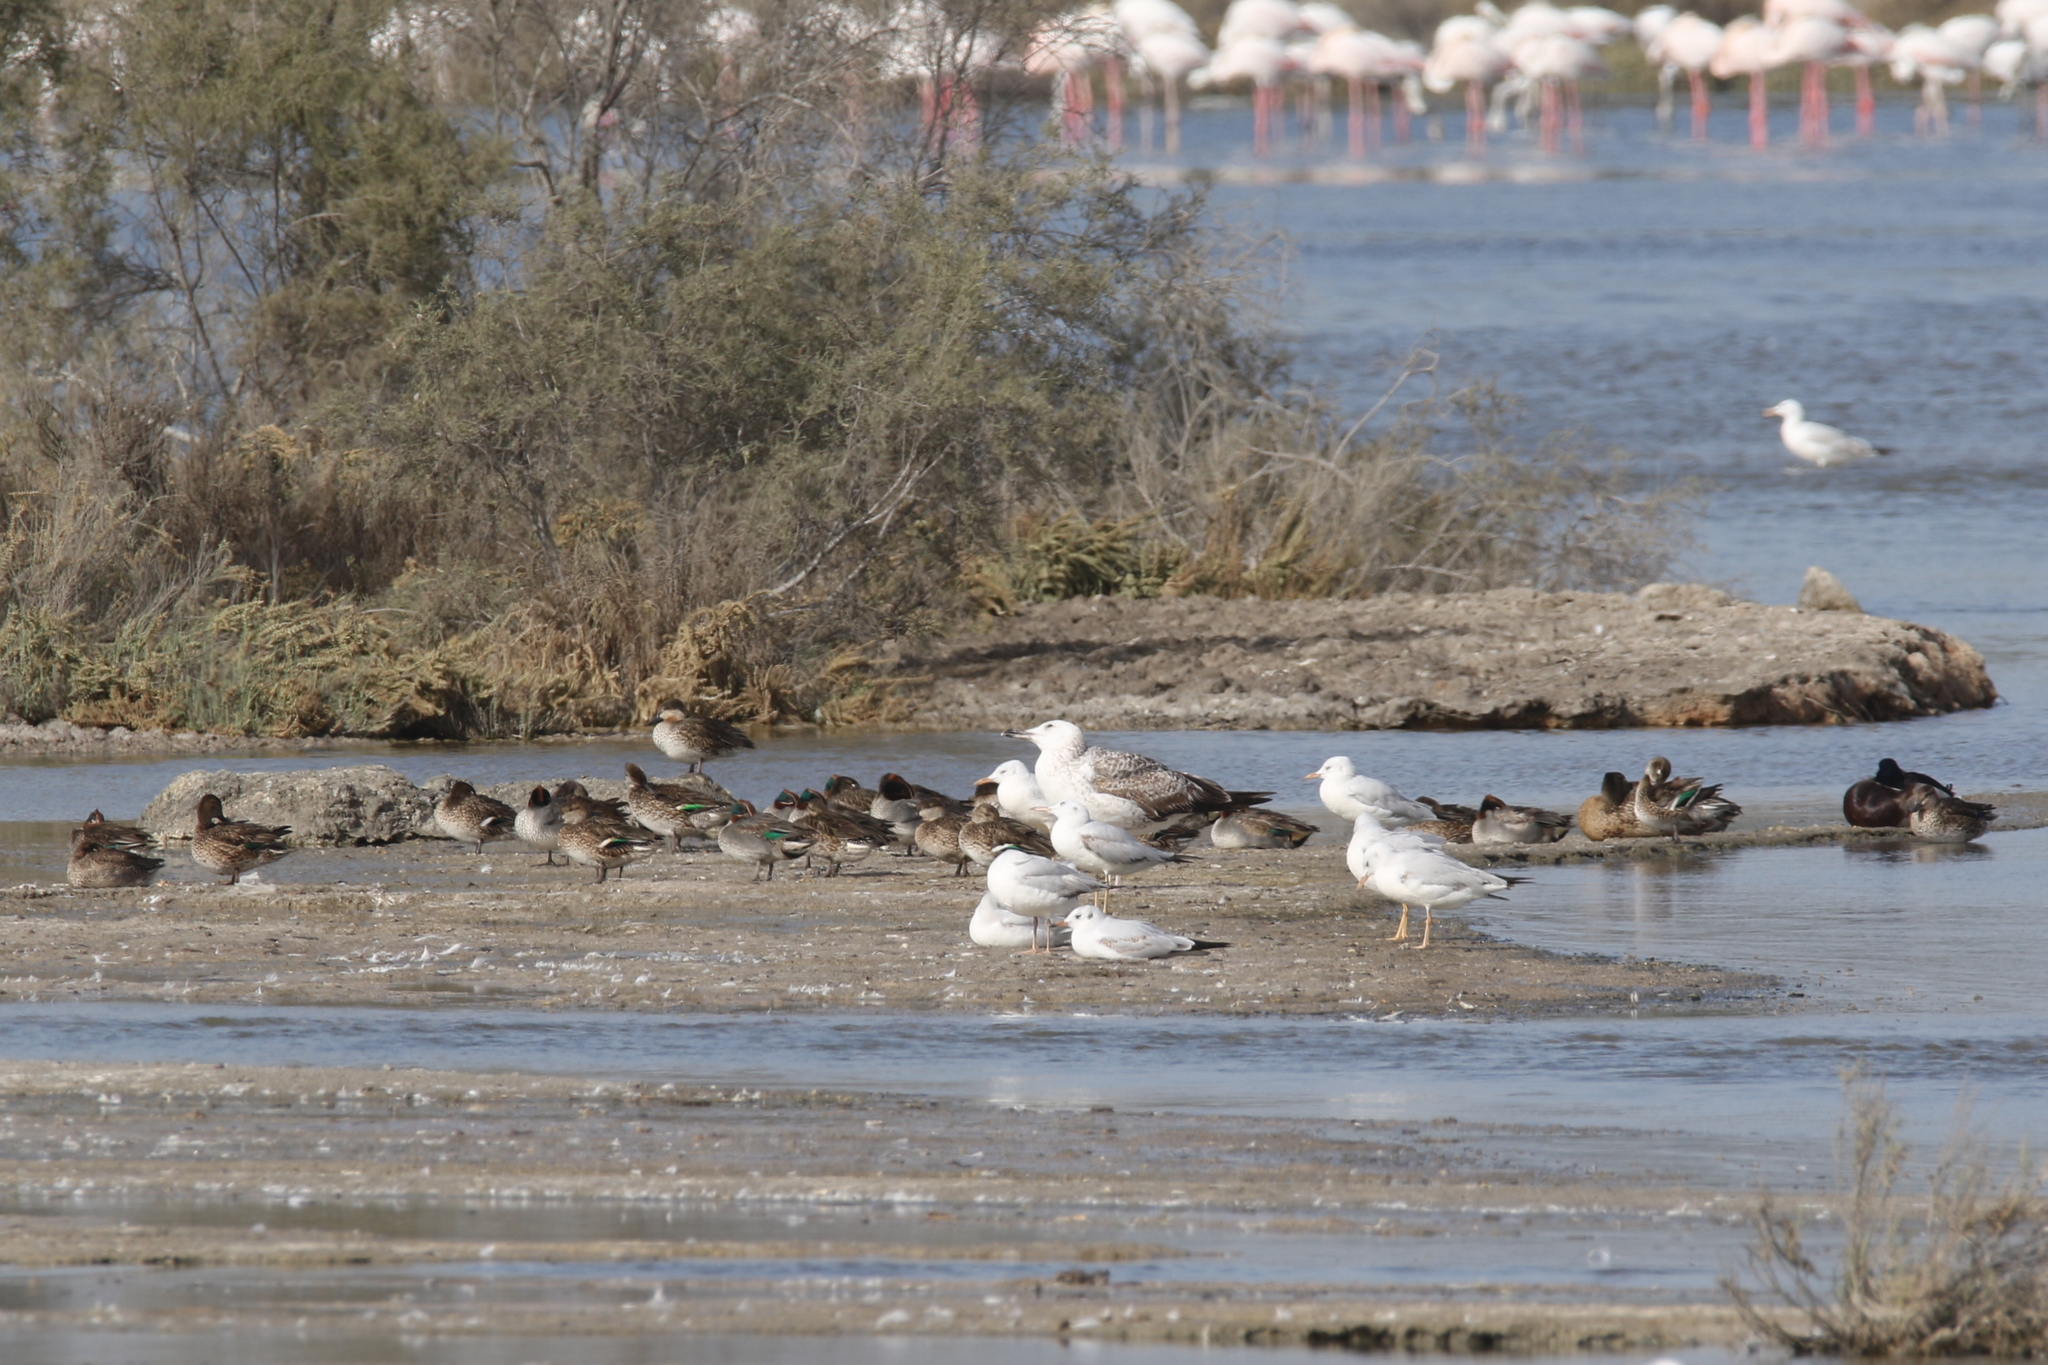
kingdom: Animalia
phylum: Chordata
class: Aves
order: Anseriformes
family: Anatidae
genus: Anas
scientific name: Anas crecca
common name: Eurasian teal
